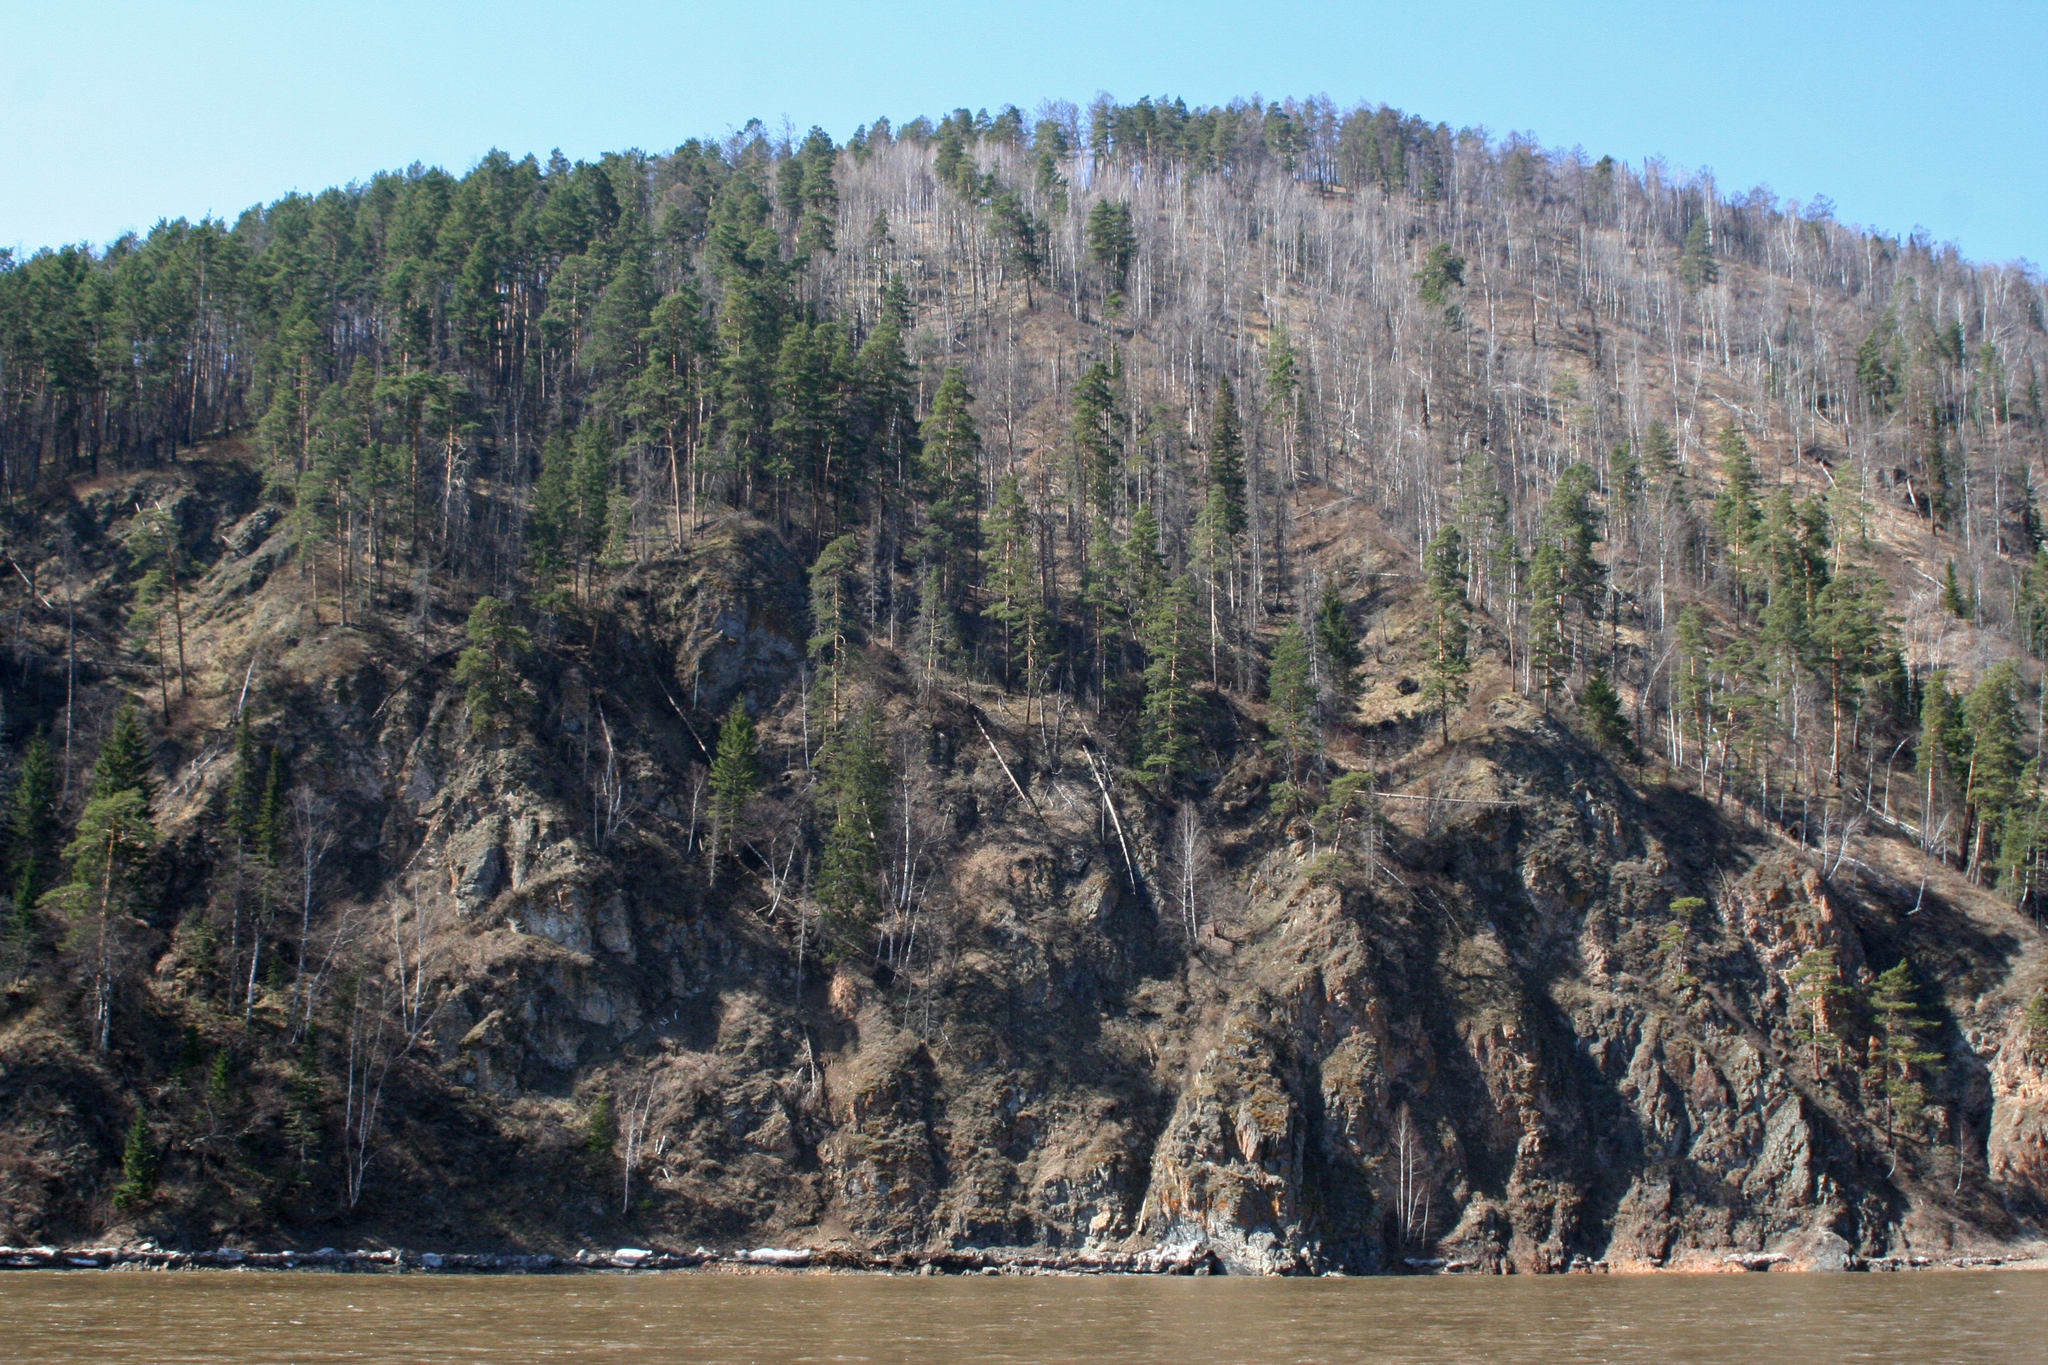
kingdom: Plantae
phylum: Tracheophyta
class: Pinopsida
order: Pinales
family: Pinaceae
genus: Pinus
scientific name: Pinus sylvestris
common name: Scots pine
